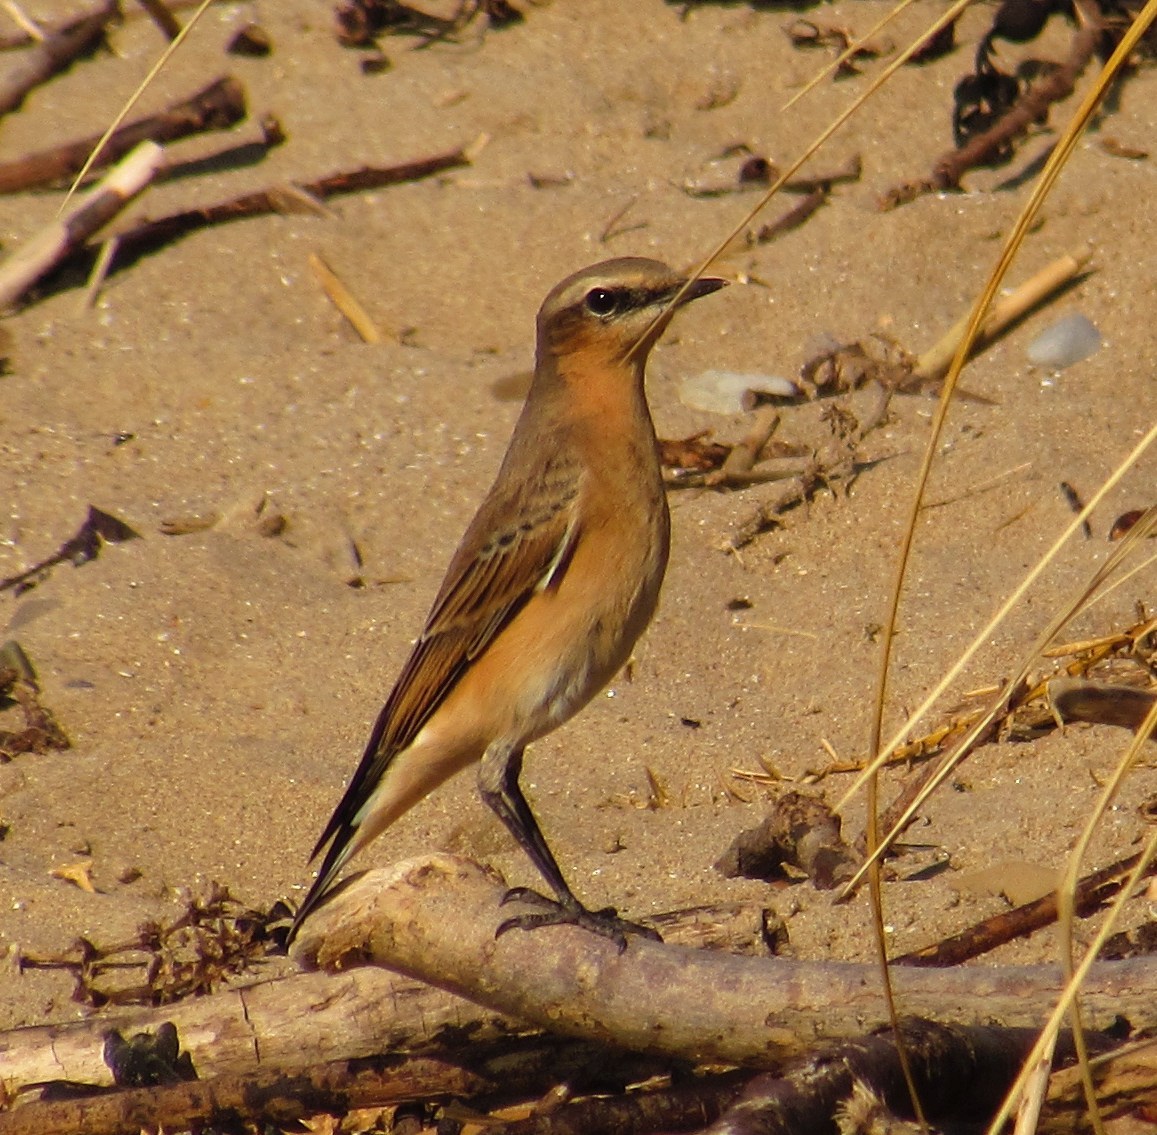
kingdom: Animalia
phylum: Chordata
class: Aves
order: Passeriformes
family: Muscicapidae
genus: Oenanthe
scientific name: Oenanthe oenanthe
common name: Northern wheatear
